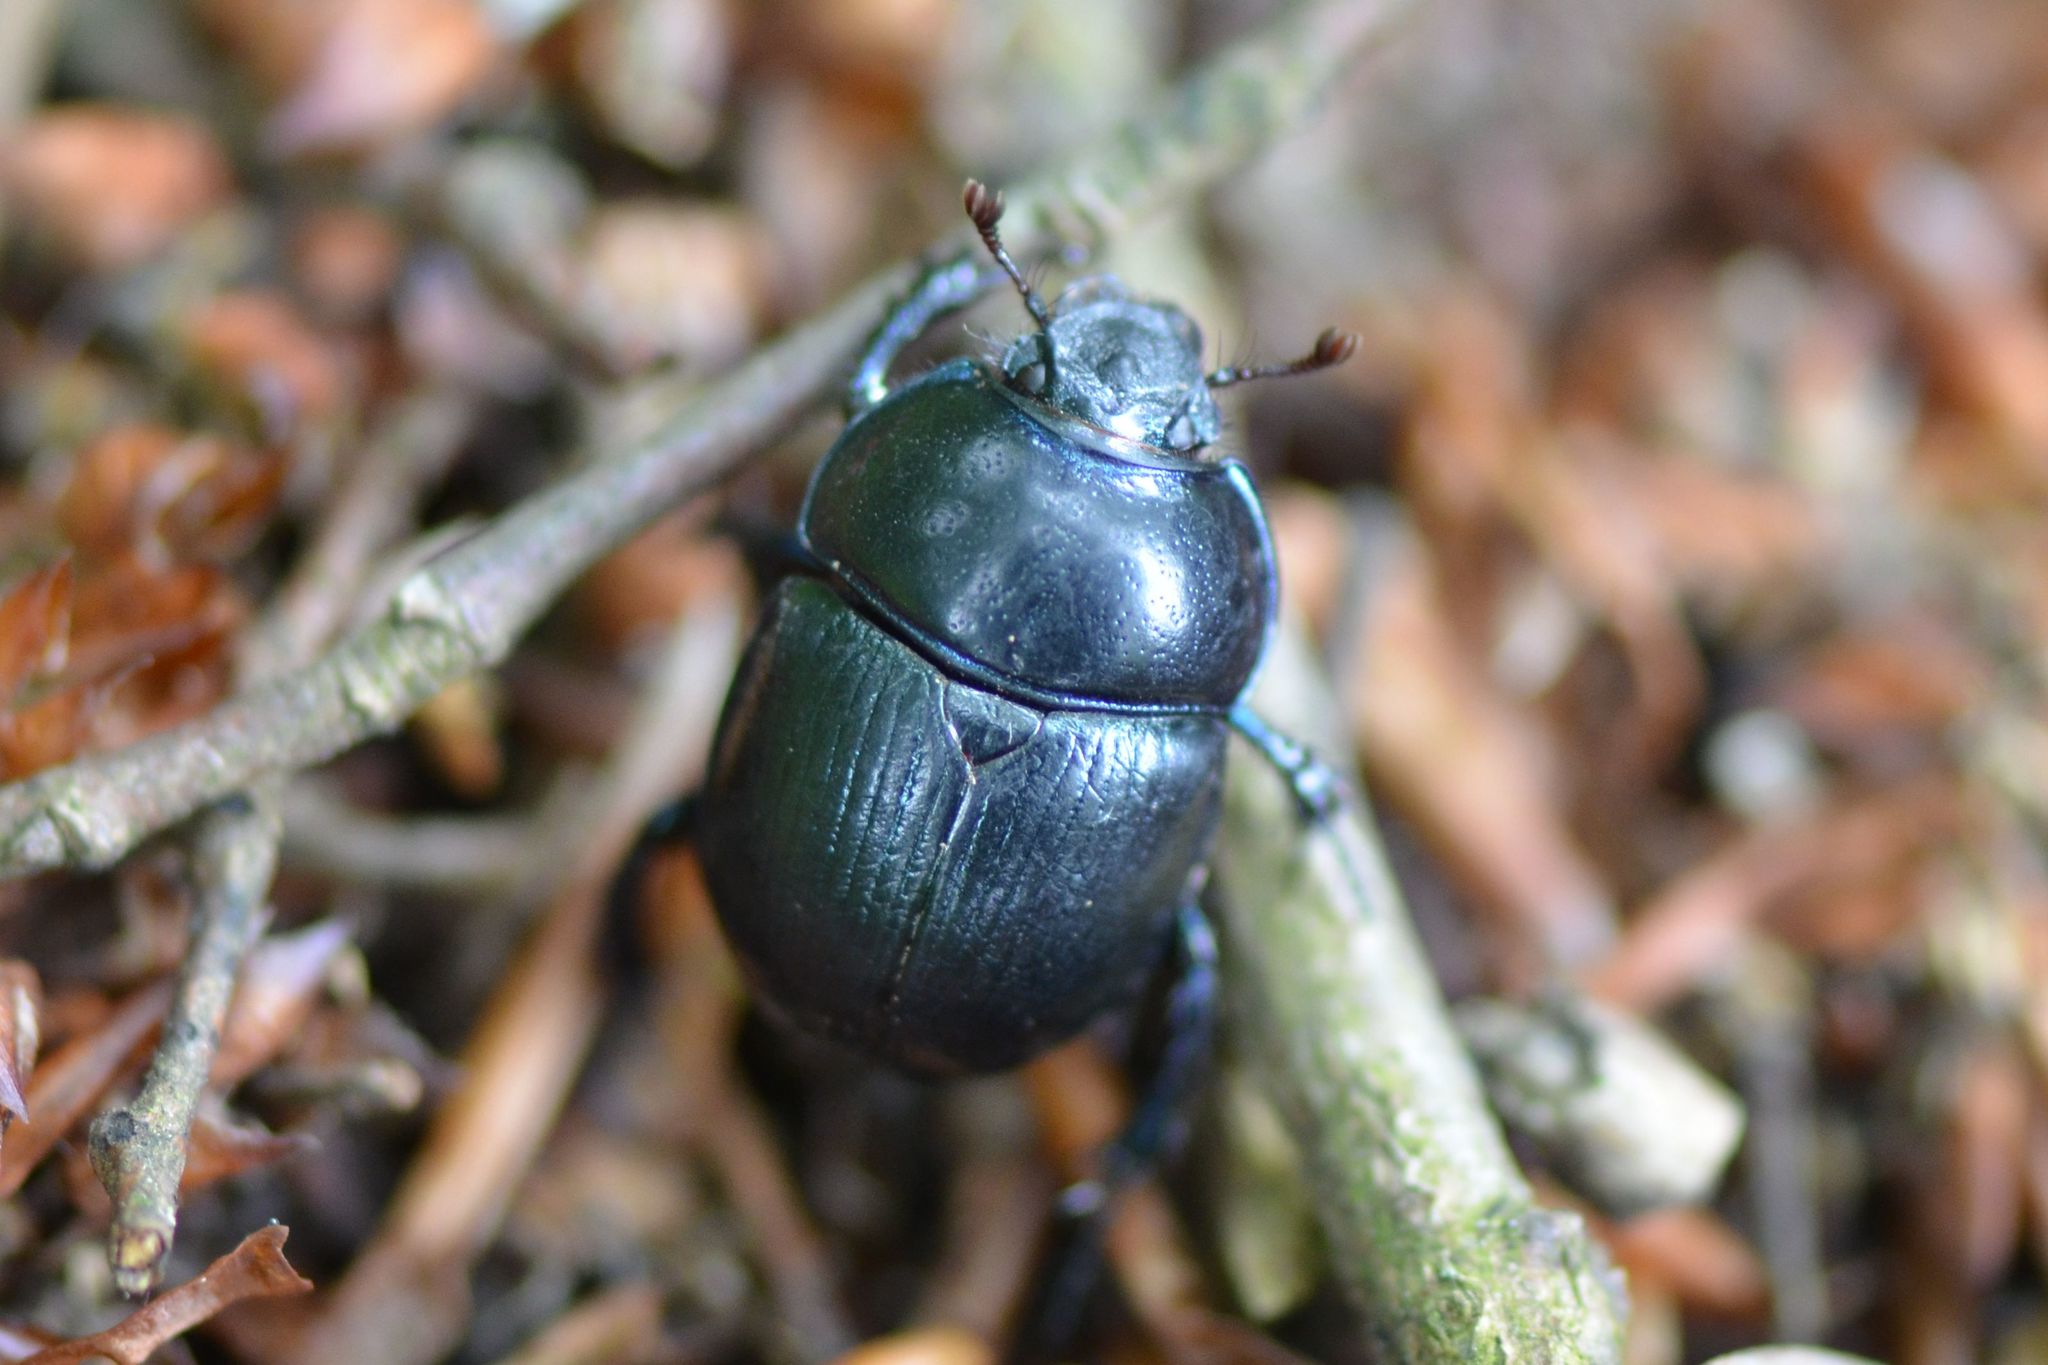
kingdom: Animalia
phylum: Arthropoda
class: Insecta
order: Coleoptera
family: Geotrupidae
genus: Anoplotrupes
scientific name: Anoplotrupes stercorosus
